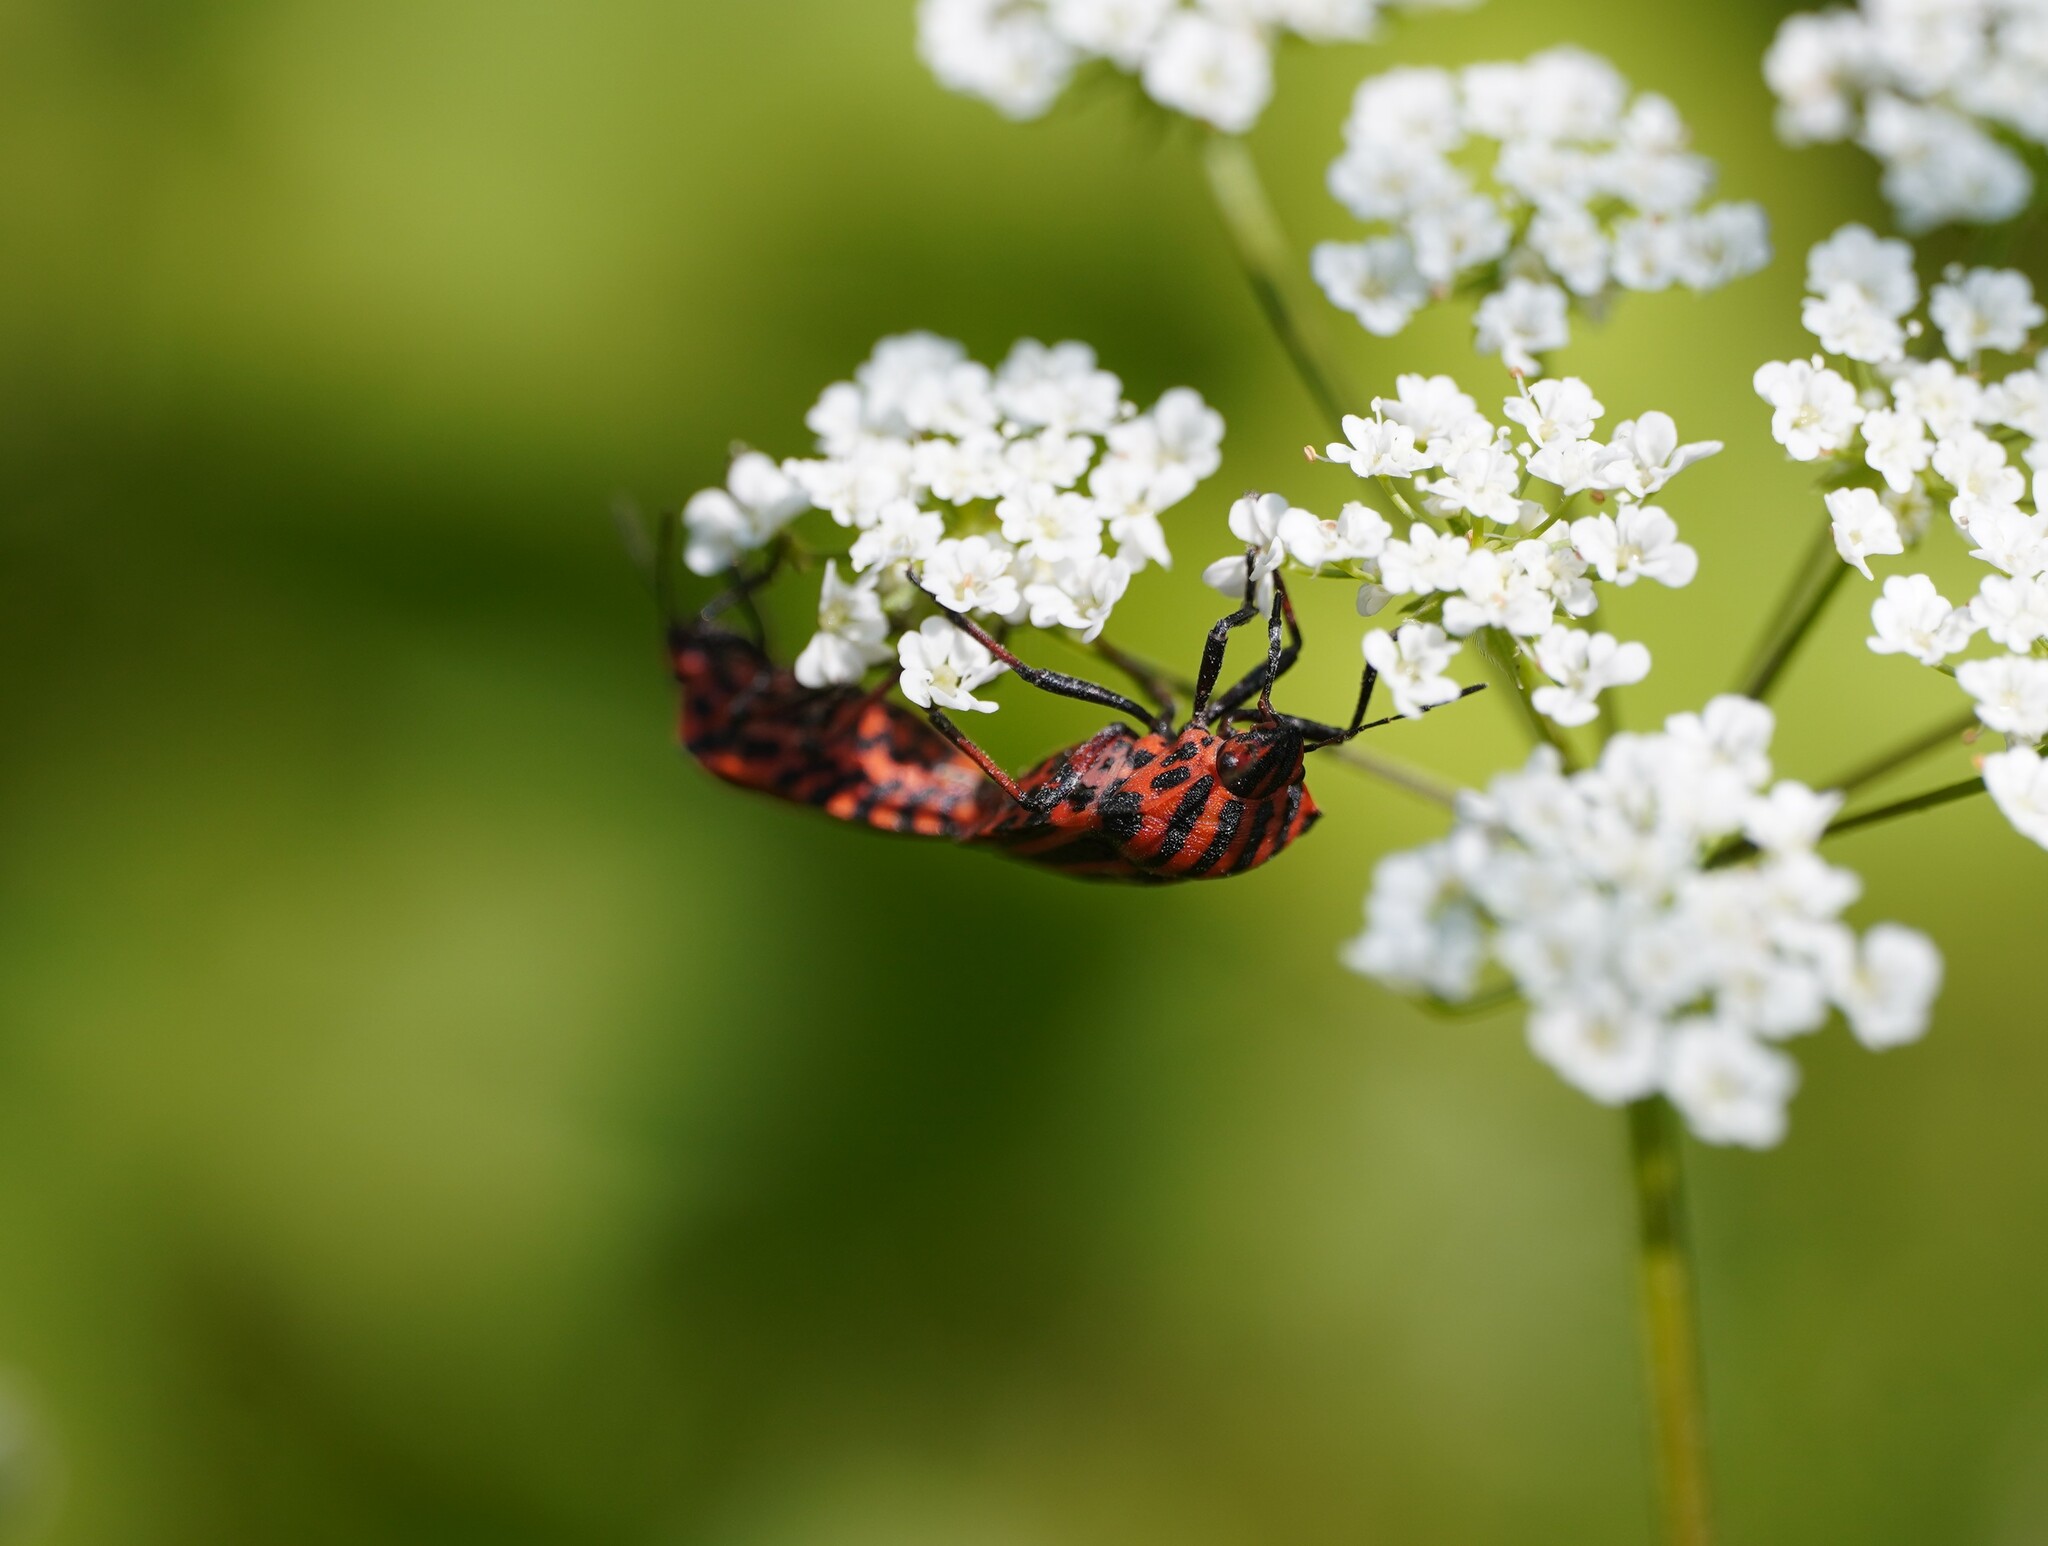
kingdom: Animalia
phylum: Arthropoda
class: Insecta
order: Hemiptera
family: Pentatomidae
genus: Graphosoma
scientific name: Graphosoma italicum
